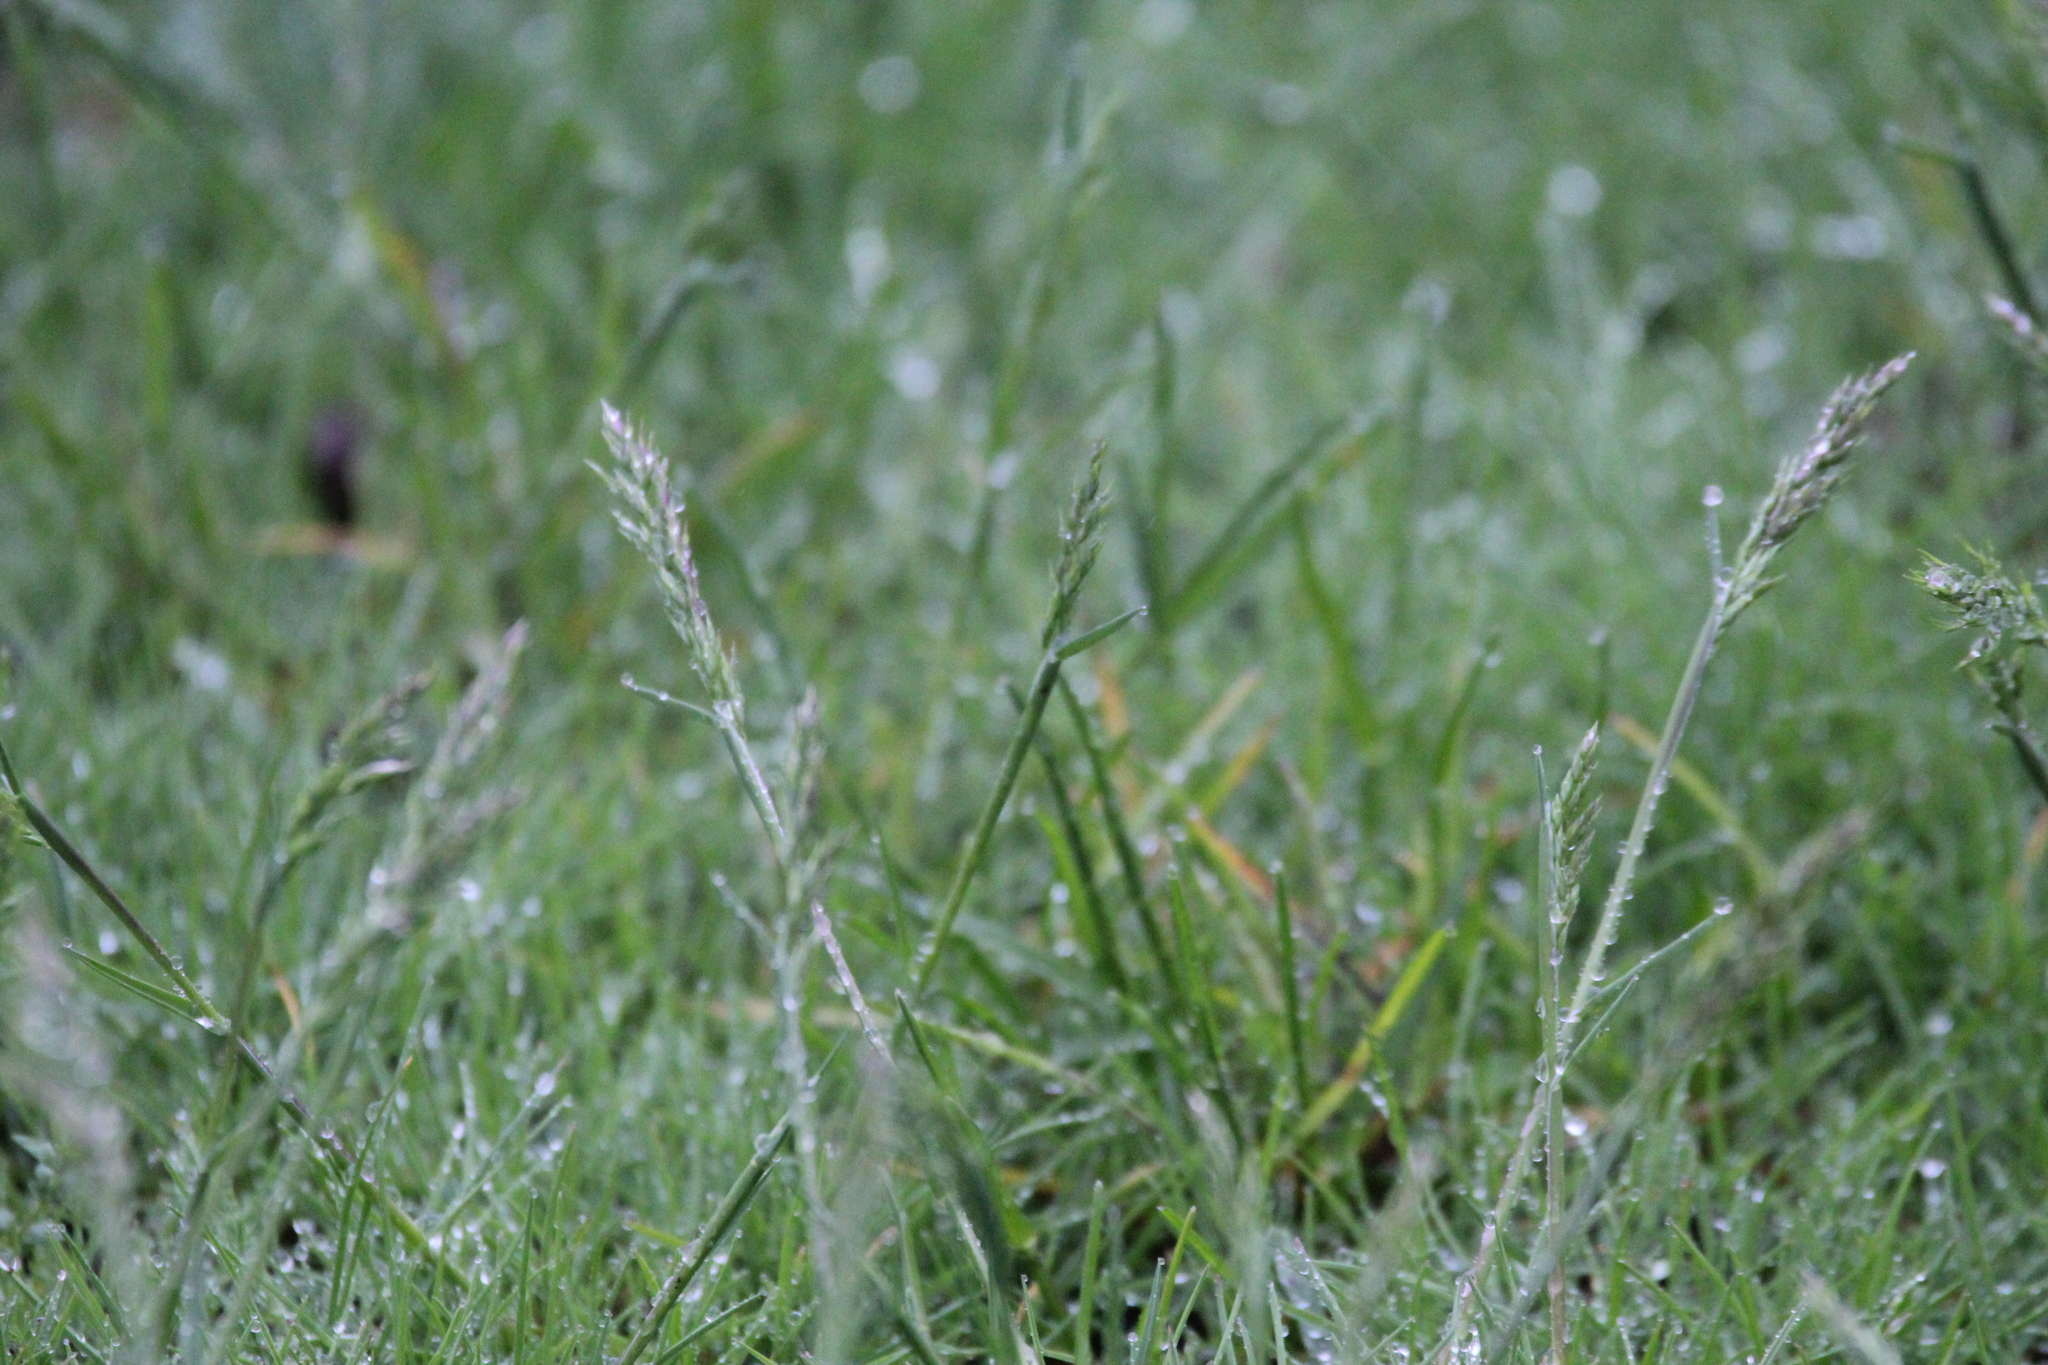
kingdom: Plantae
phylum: Tracheophyta
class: Liliopsida
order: Poales
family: Poaceae
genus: Poa
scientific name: Poa compressa
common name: Canada bluegrass
